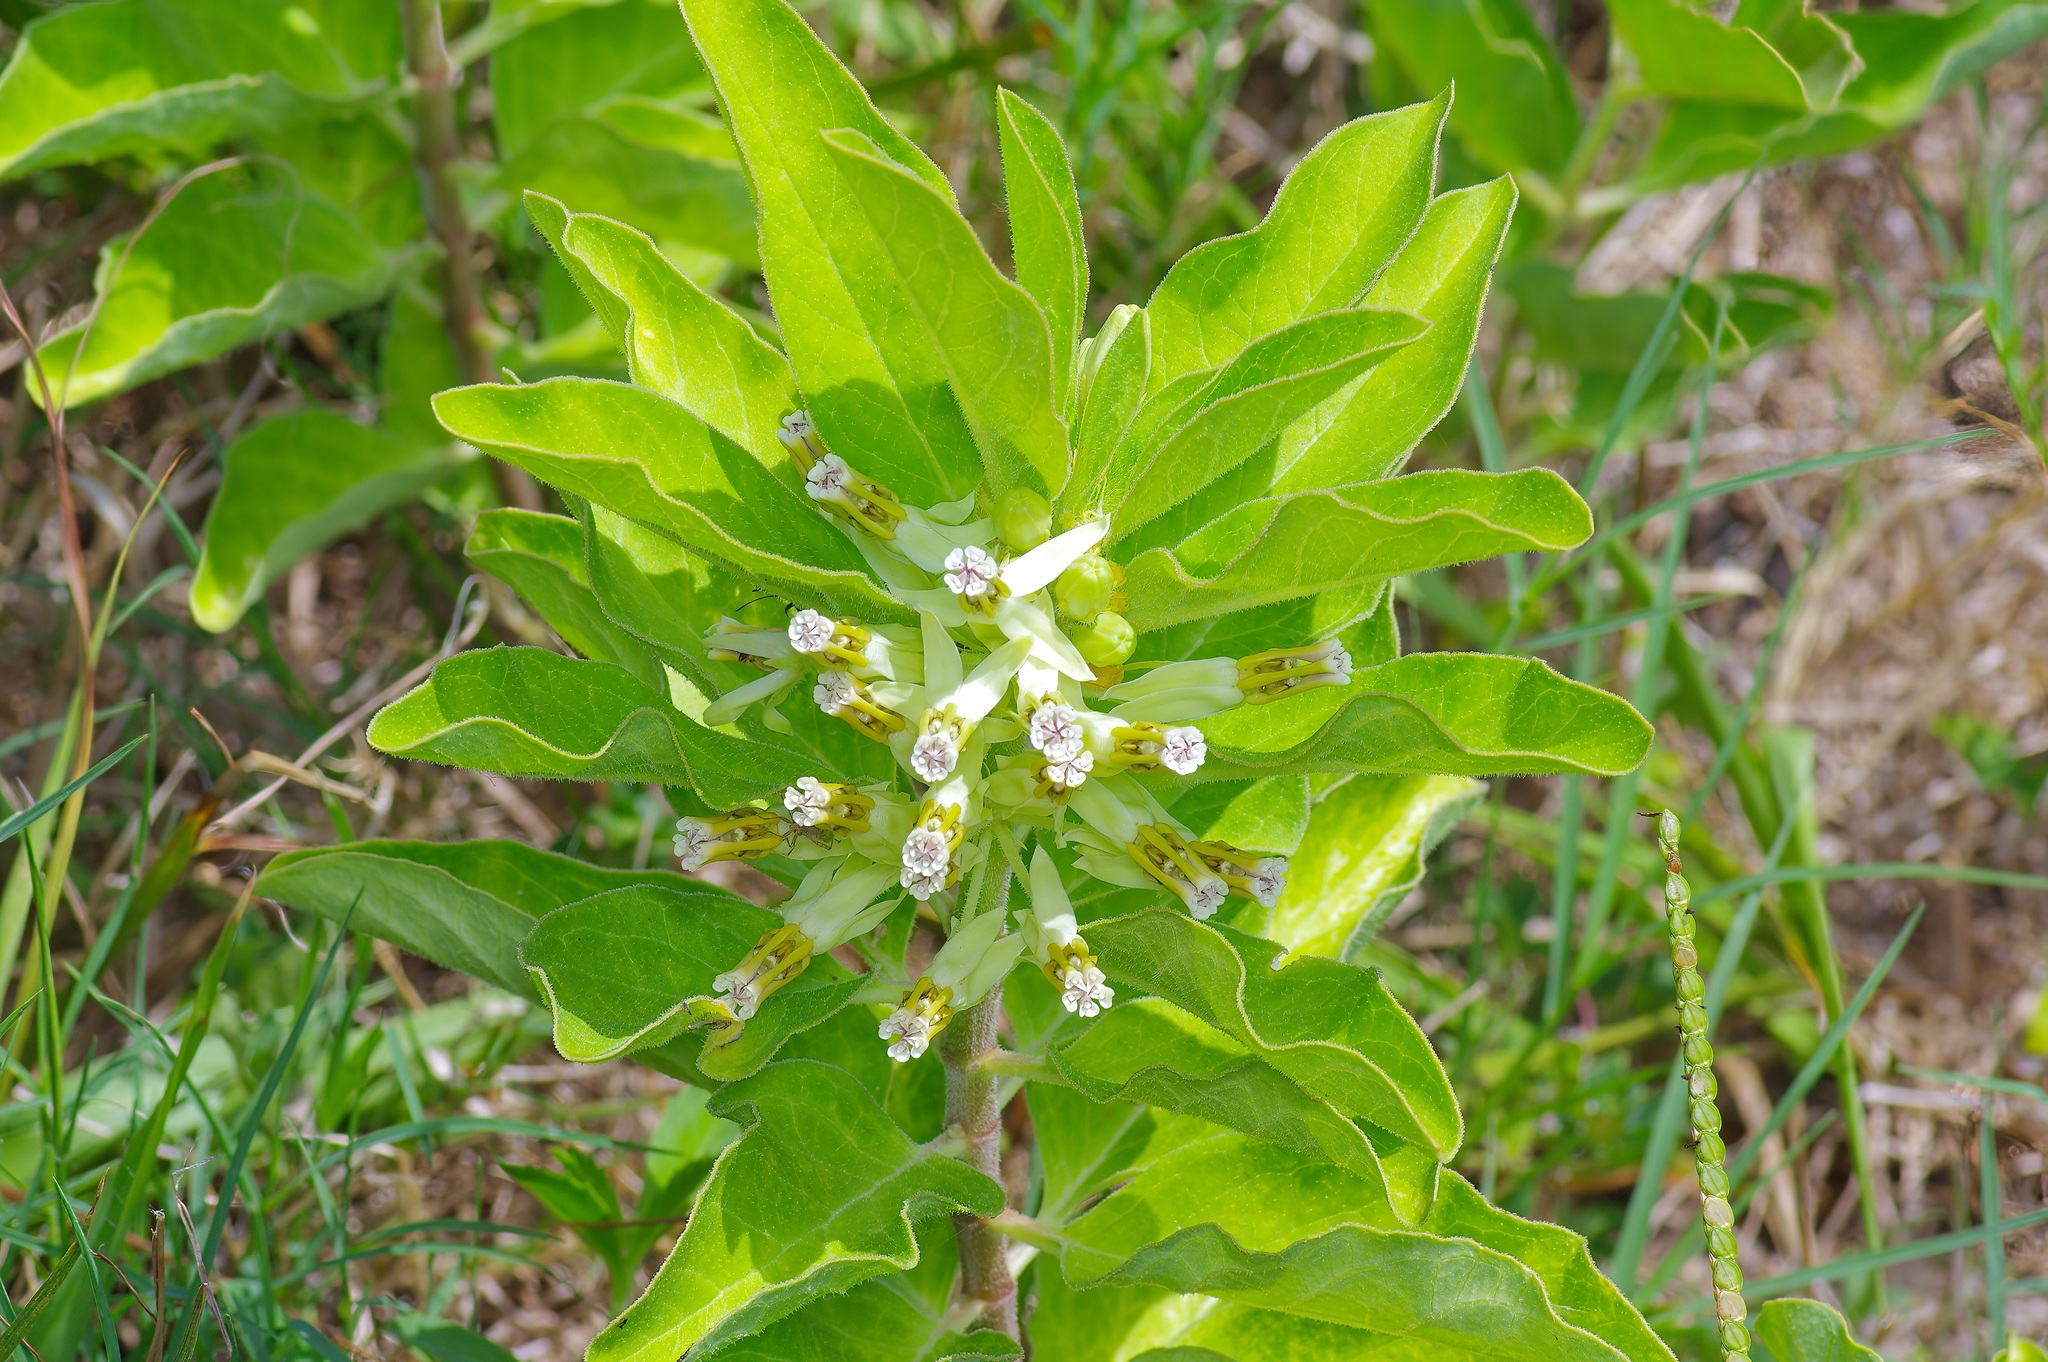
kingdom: Plantae
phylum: Tracheophyta
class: Magnoliopsida
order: Gentianales
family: Apocynaceae
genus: Asclepias
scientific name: Asclepias oenotheroides
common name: Zizotes milkweed
